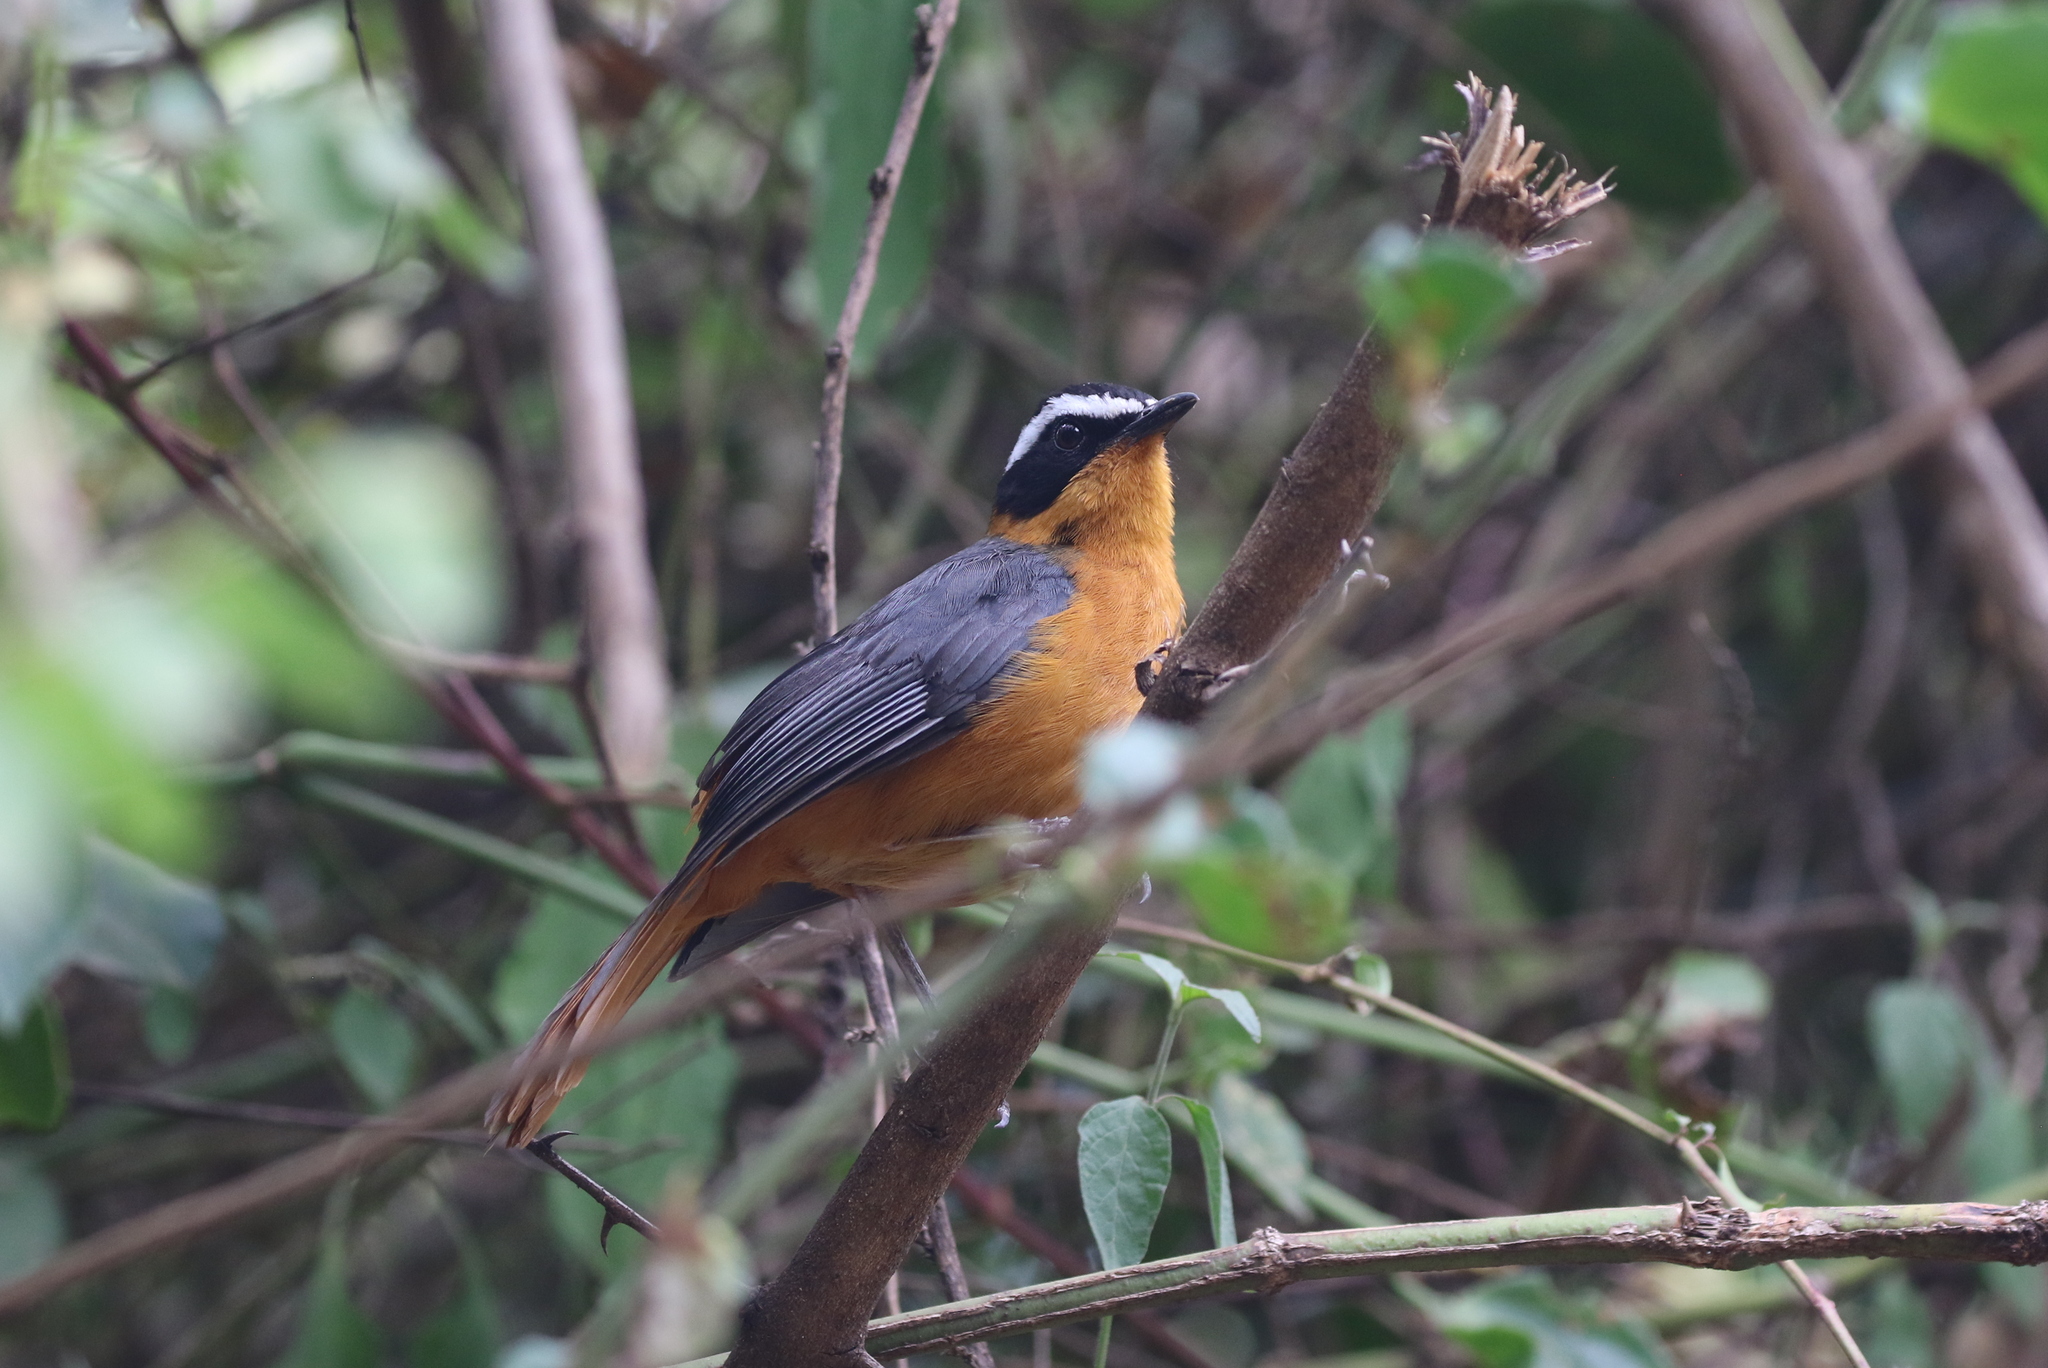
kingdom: Animalia
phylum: Chordata
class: Aves
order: Passeriformes
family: Muscicapidae
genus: Cossypha
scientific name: Cossypha heuglini
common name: White-browed robin-chat
